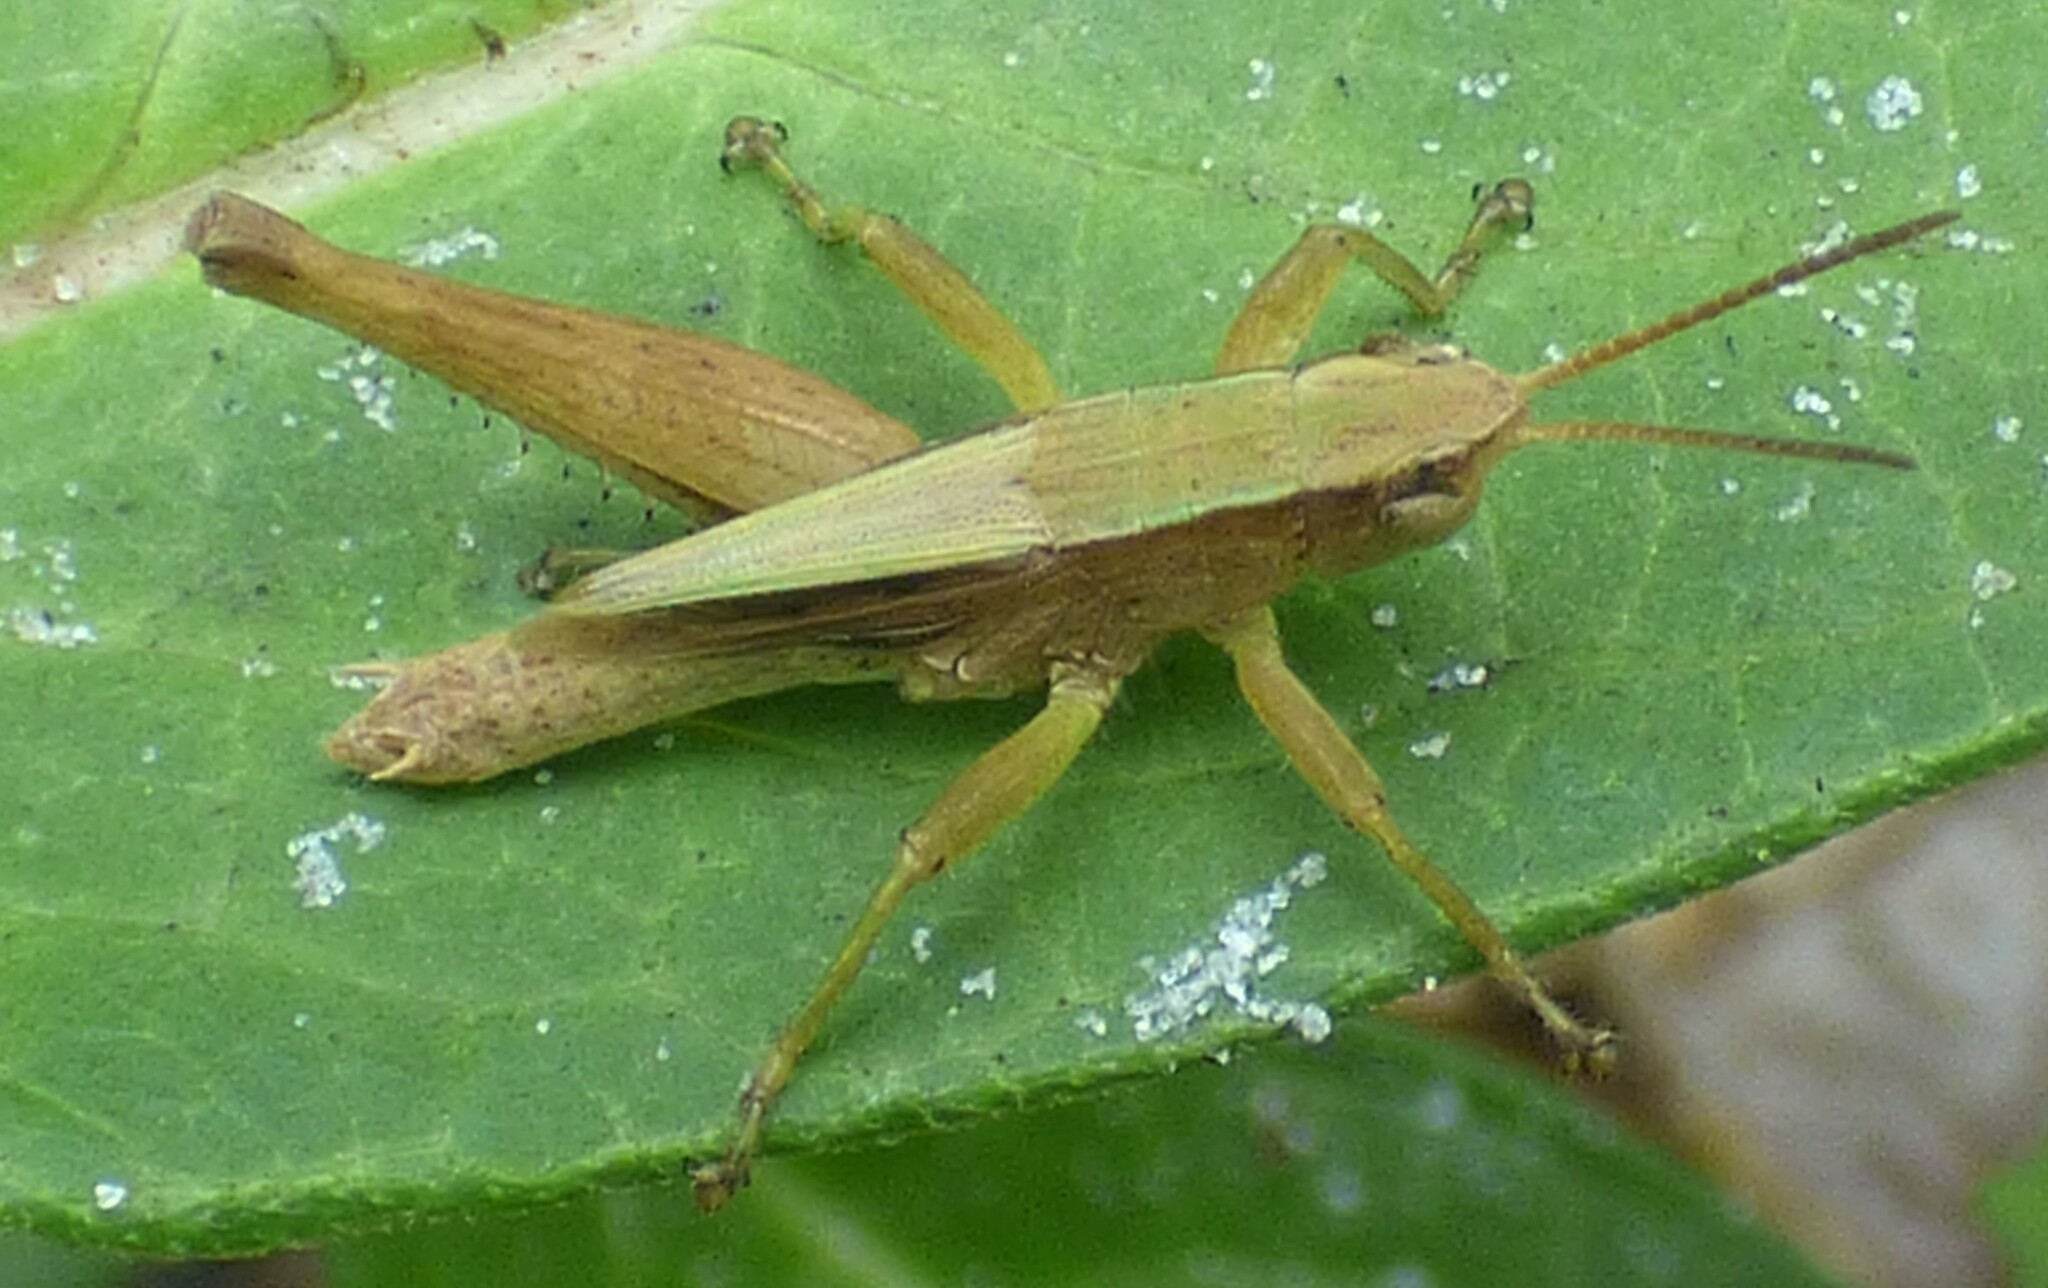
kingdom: Animalia
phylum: Arthropoda
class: Insecta
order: Orthoptera
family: Acrididae
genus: Dichromorpha
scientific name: Dichromorpha viridis
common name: Short-winged green grasshopper
